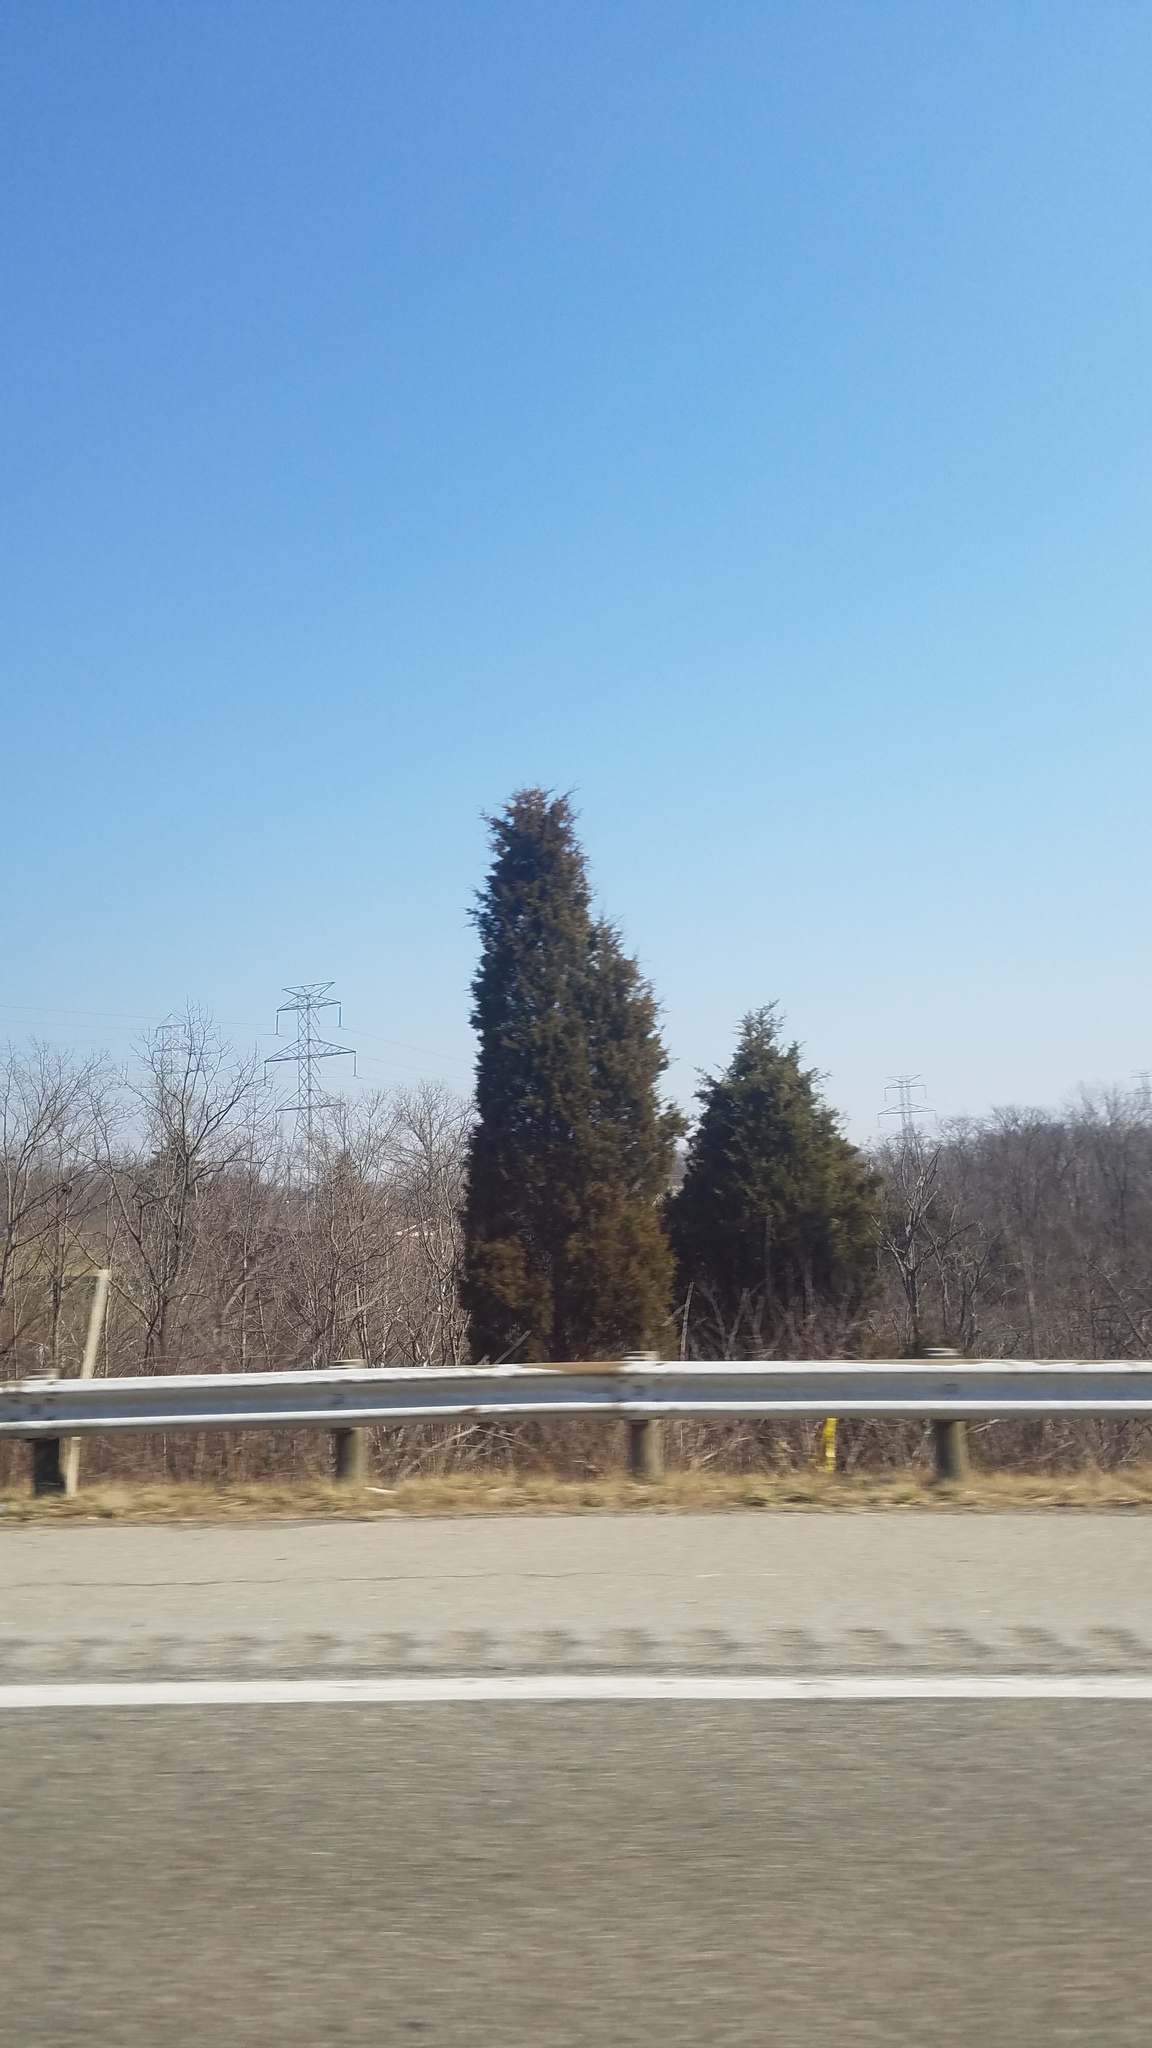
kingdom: Plantae
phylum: Tracheophyta
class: Pinopsida
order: Pinales
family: Cupressaceae
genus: Juniperus
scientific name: Juniperus virginiana
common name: Red juniper
